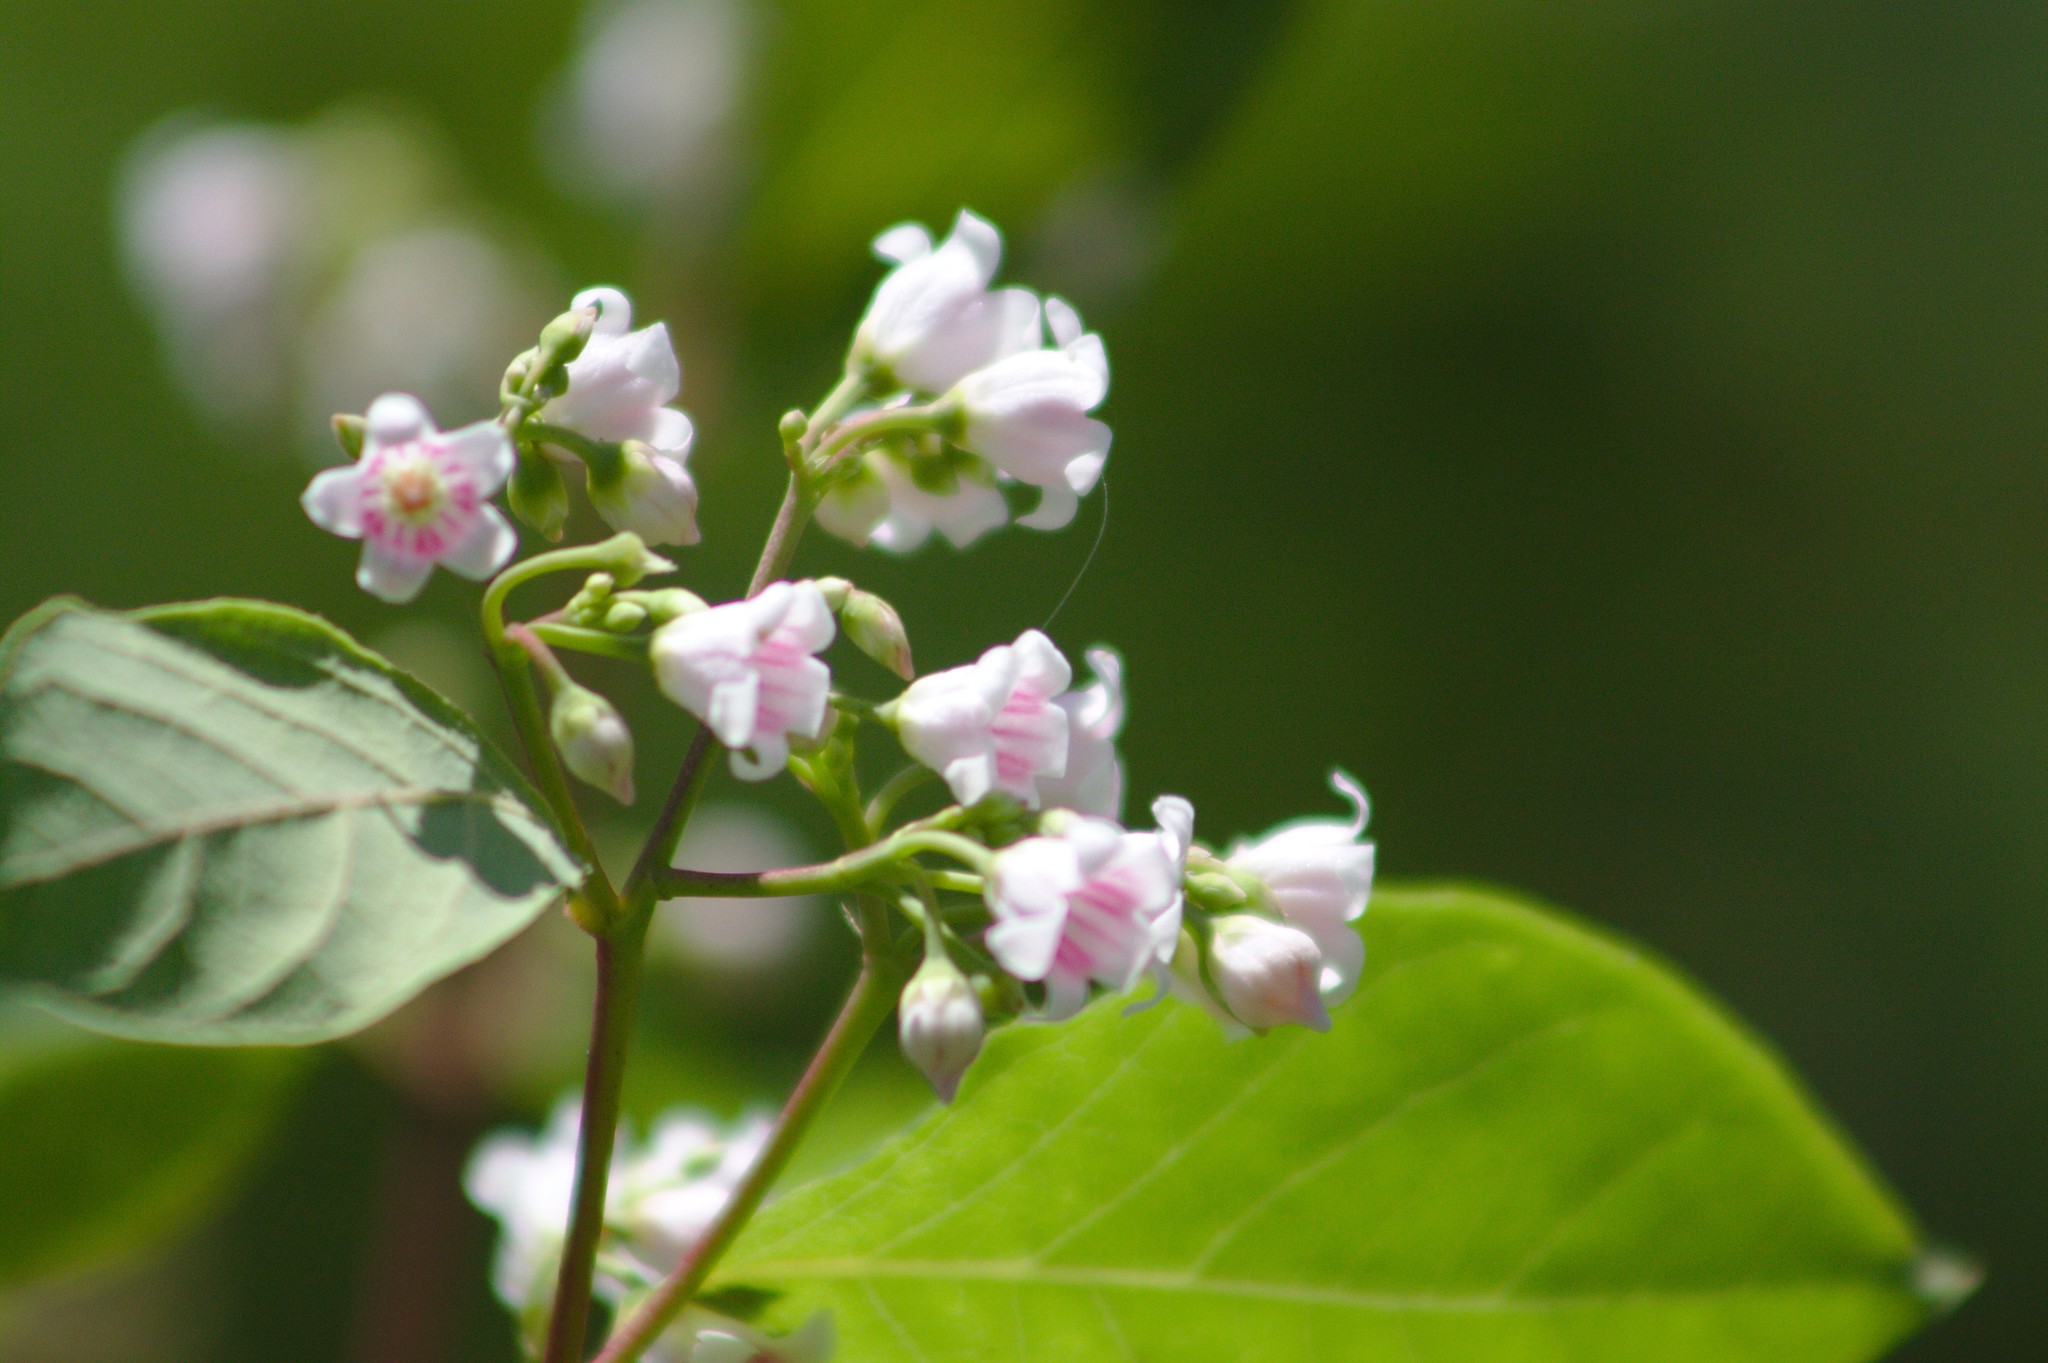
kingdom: Plantae
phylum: Tracheophyta
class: Magnoliopsida
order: Gentianales
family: Apocynaceae
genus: Apocynum
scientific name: Apocynum androsaemifolium
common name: Spreading dogbane
